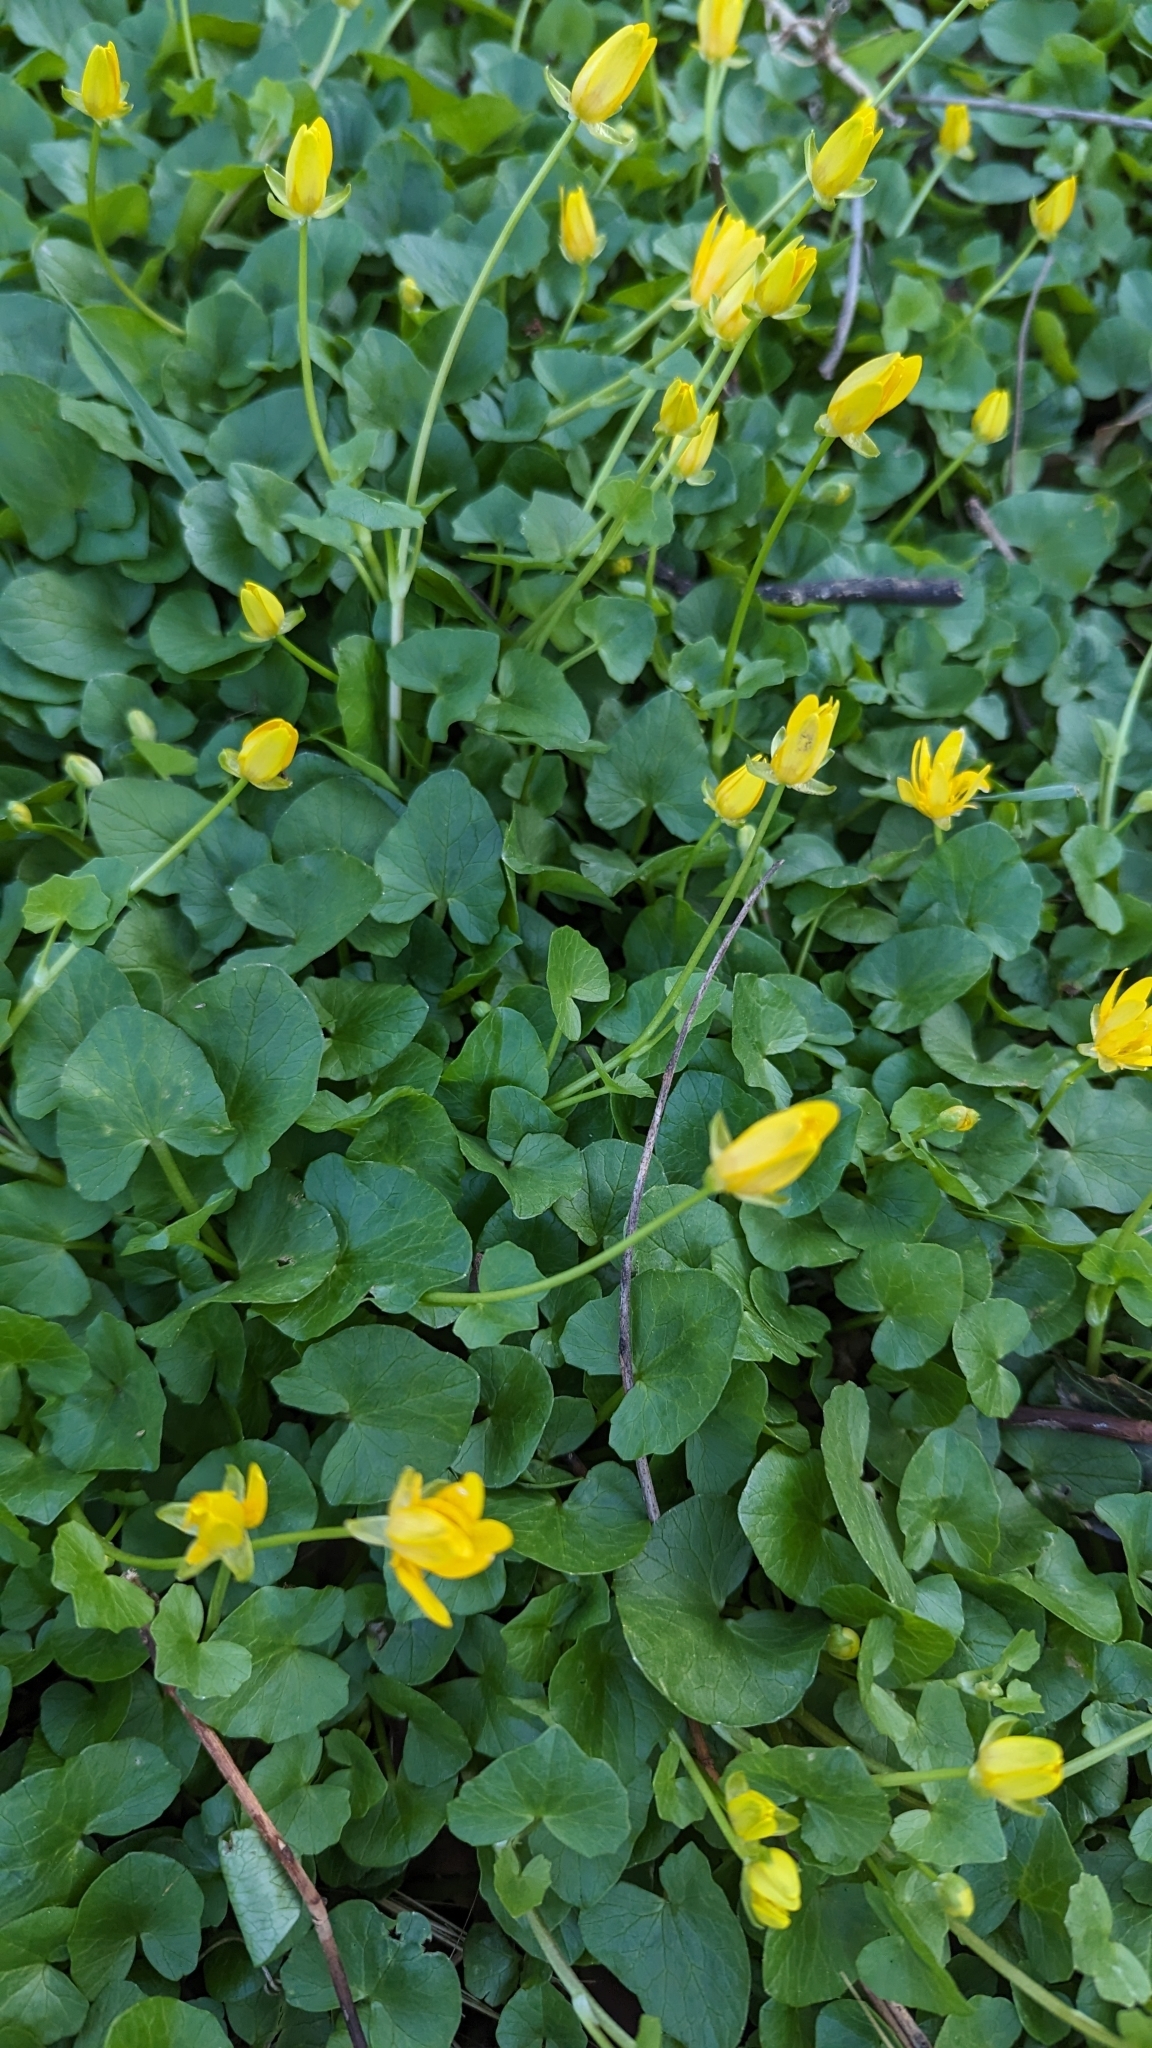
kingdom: Plantae
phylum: Tracheophyta
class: Magnoliopsida
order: Ranunculales
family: Ranunculaceae
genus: Ficaria
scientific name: Ficaria verna
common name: Lesser celandine
